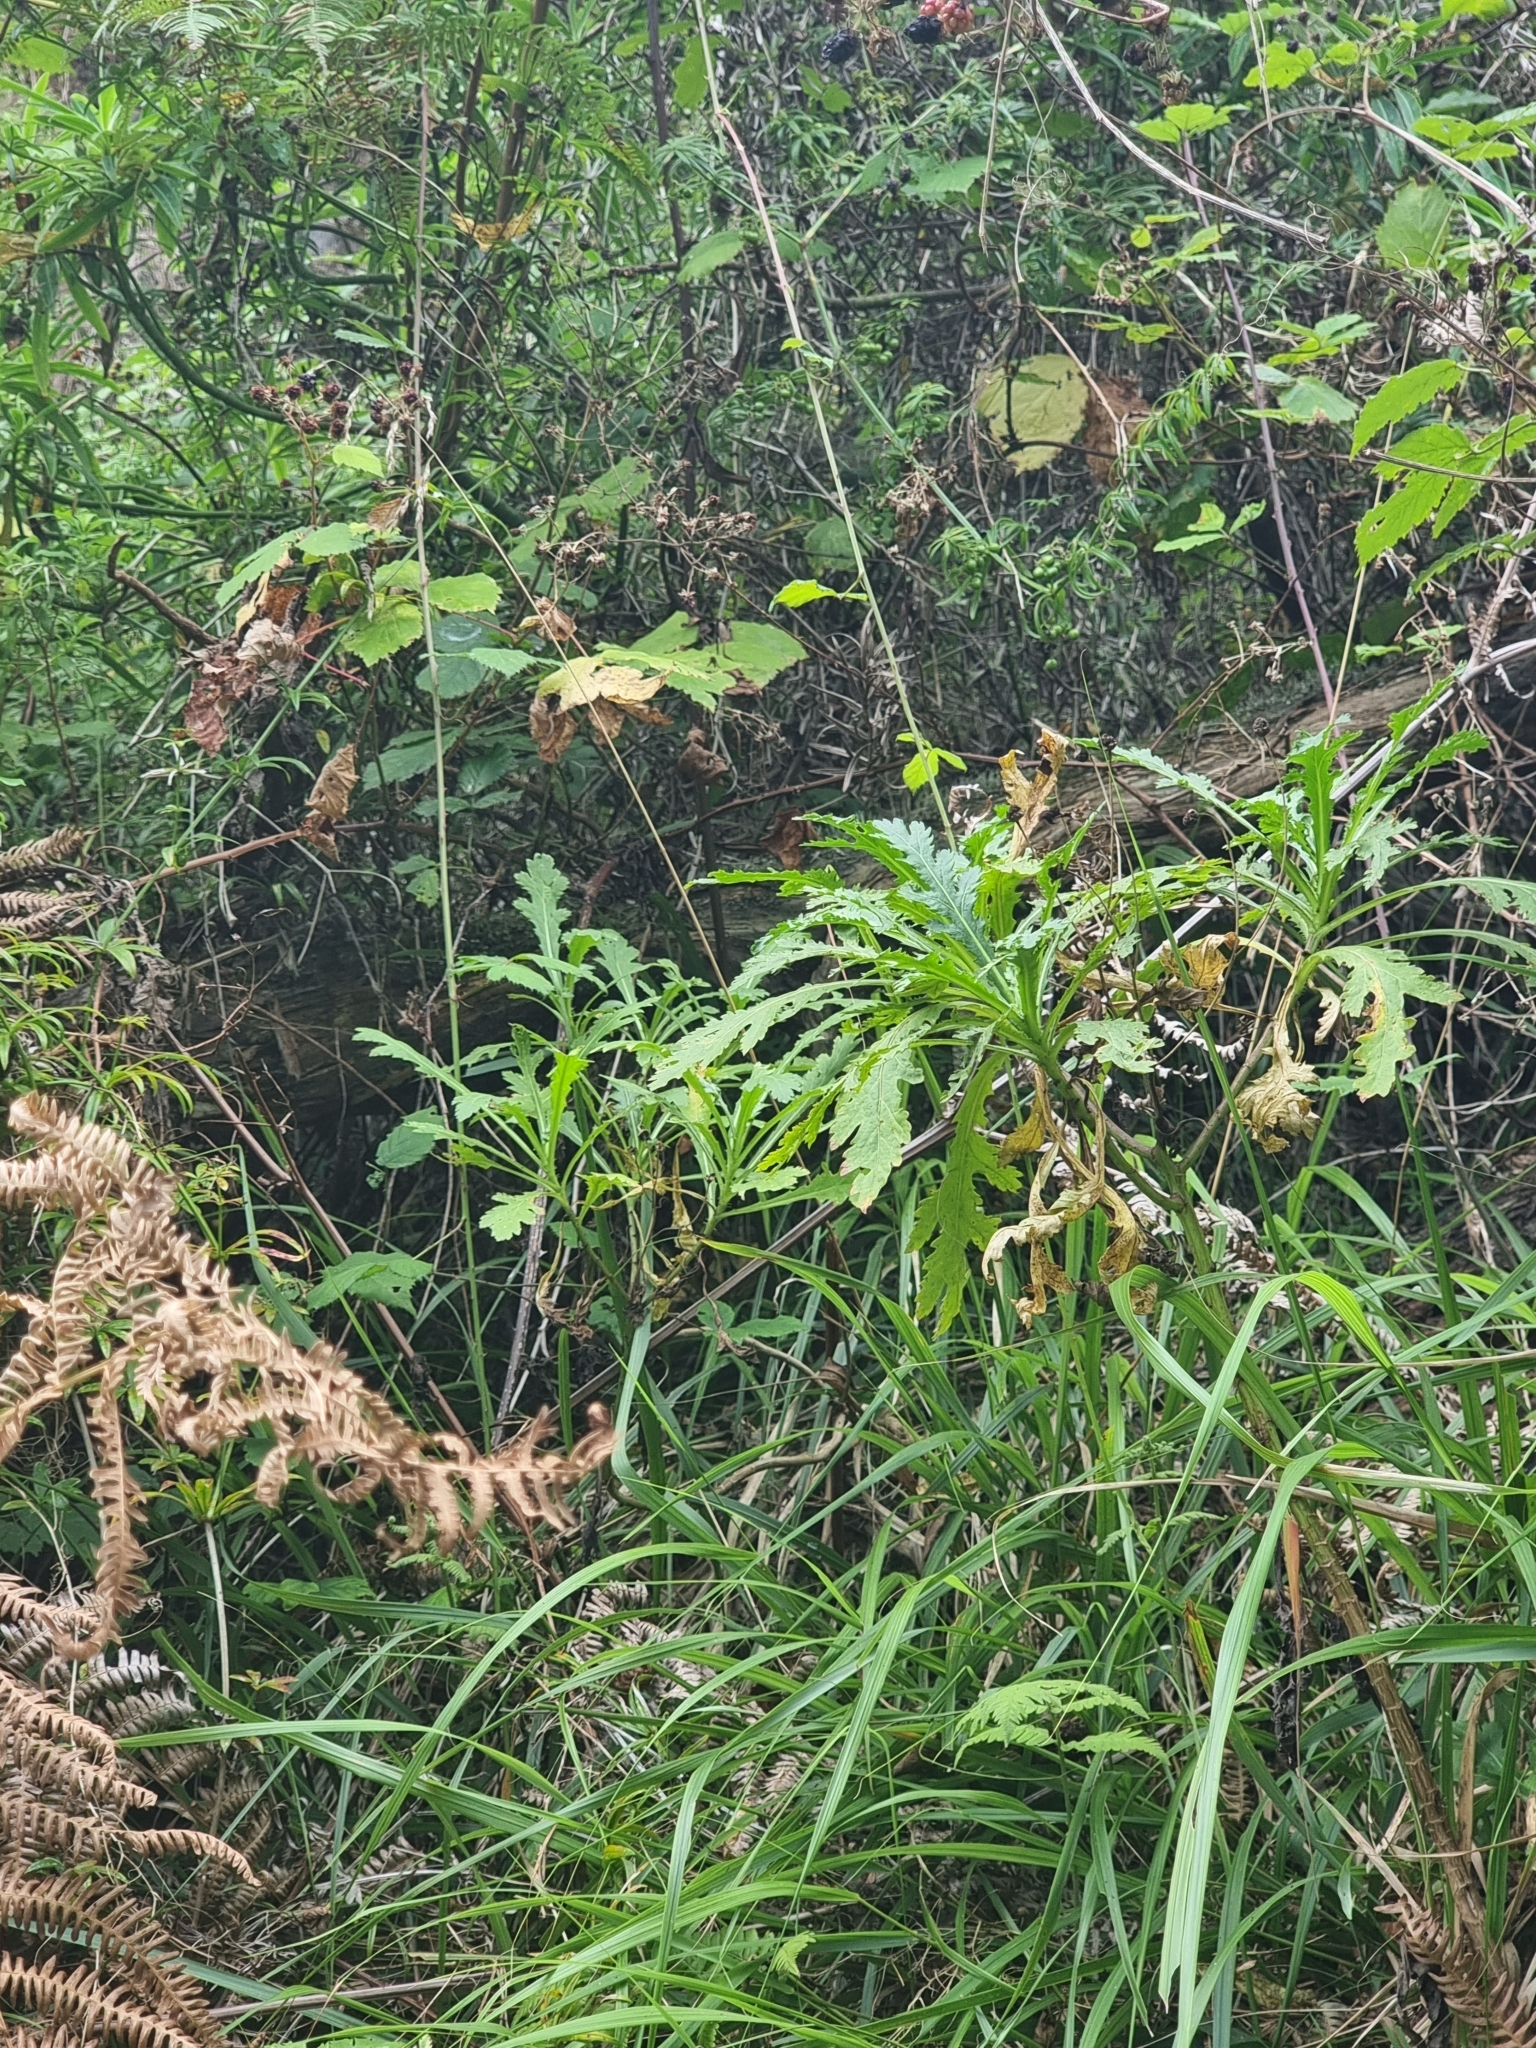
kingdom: Plantae
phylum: Tracheophyta
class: Magnoliopsida
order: Asterales
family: Asteraceae
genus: Argyranthemum
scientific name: Argyranthemum dissectum
